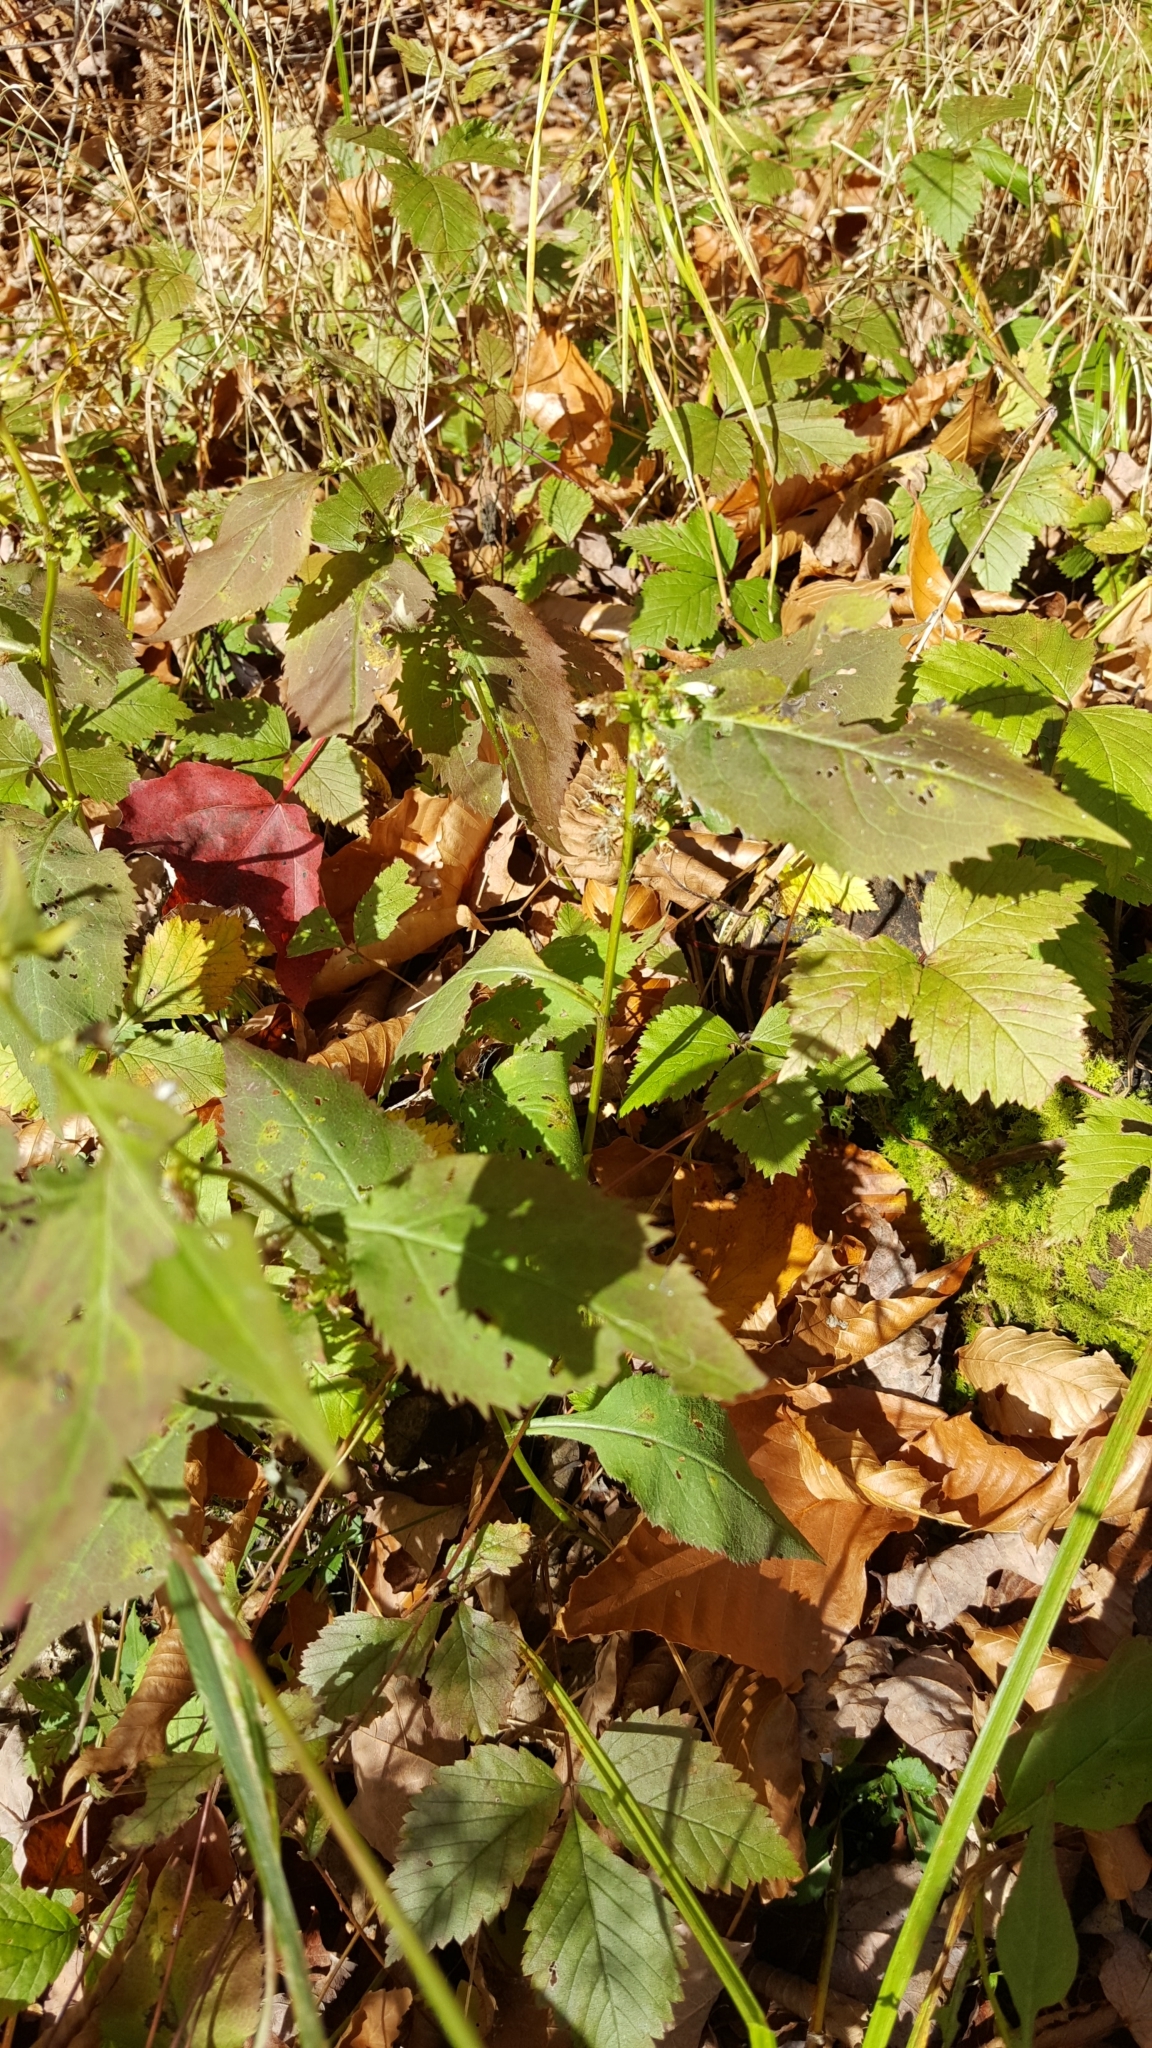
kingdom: Plantae
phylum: Tracheophyta
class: Magnoliopsida
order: Asterales
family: Asteraceae
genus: Solidago
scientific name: Solidago flexicaulis
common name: Zig-zag goldenrod
